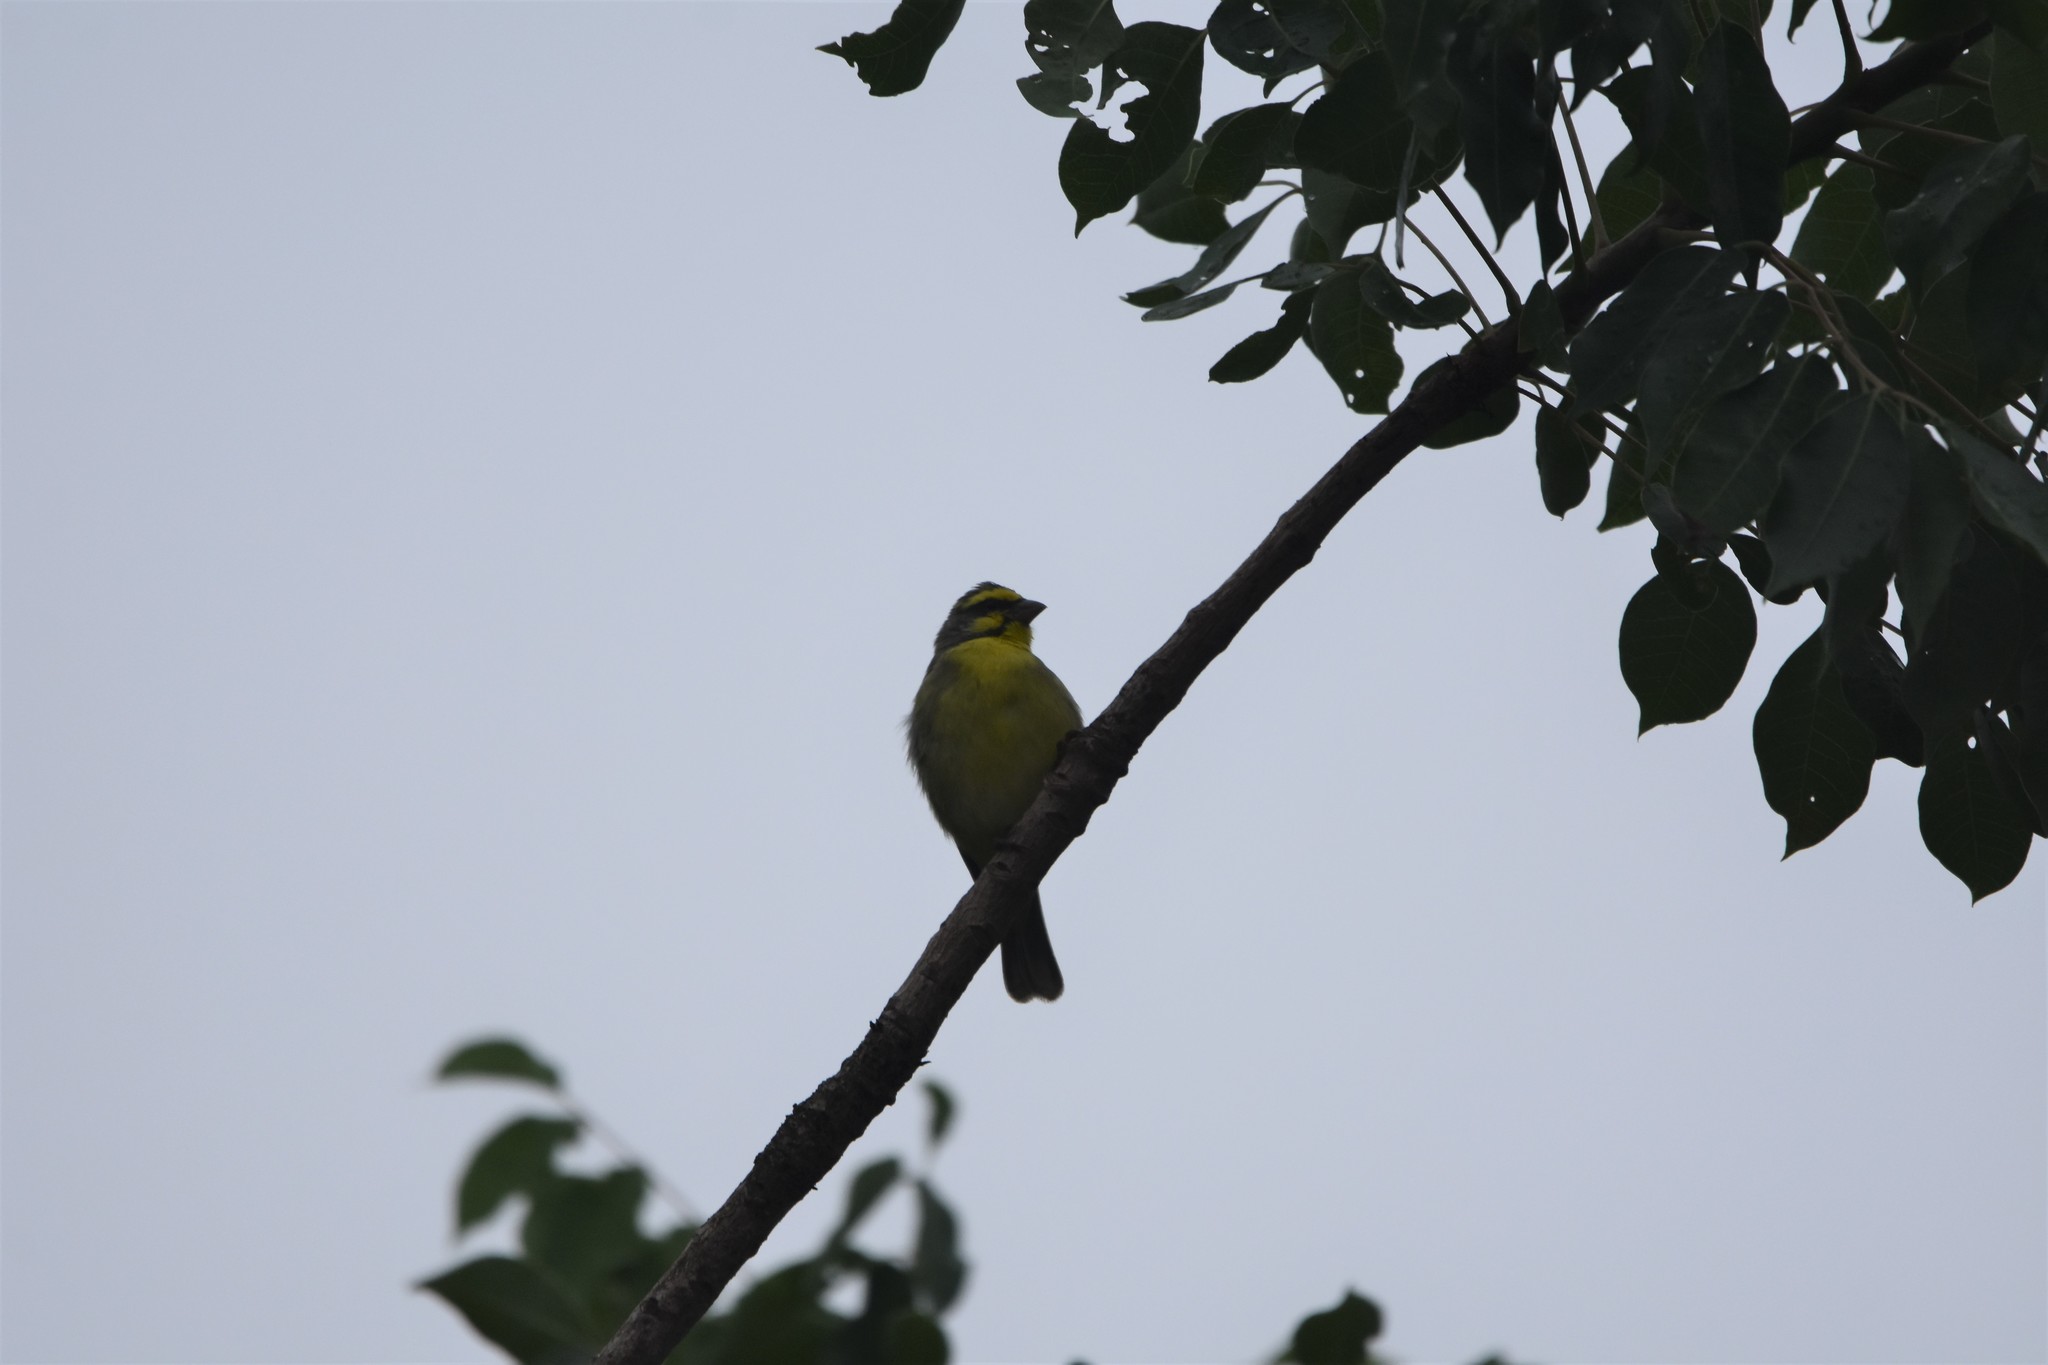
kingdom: Animalia
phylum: Chordata
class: Aves
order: Passeriformes
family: Fringillidae
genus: Crithagra
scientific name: Crithagra mozambica
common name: Yellow-fronted canary
